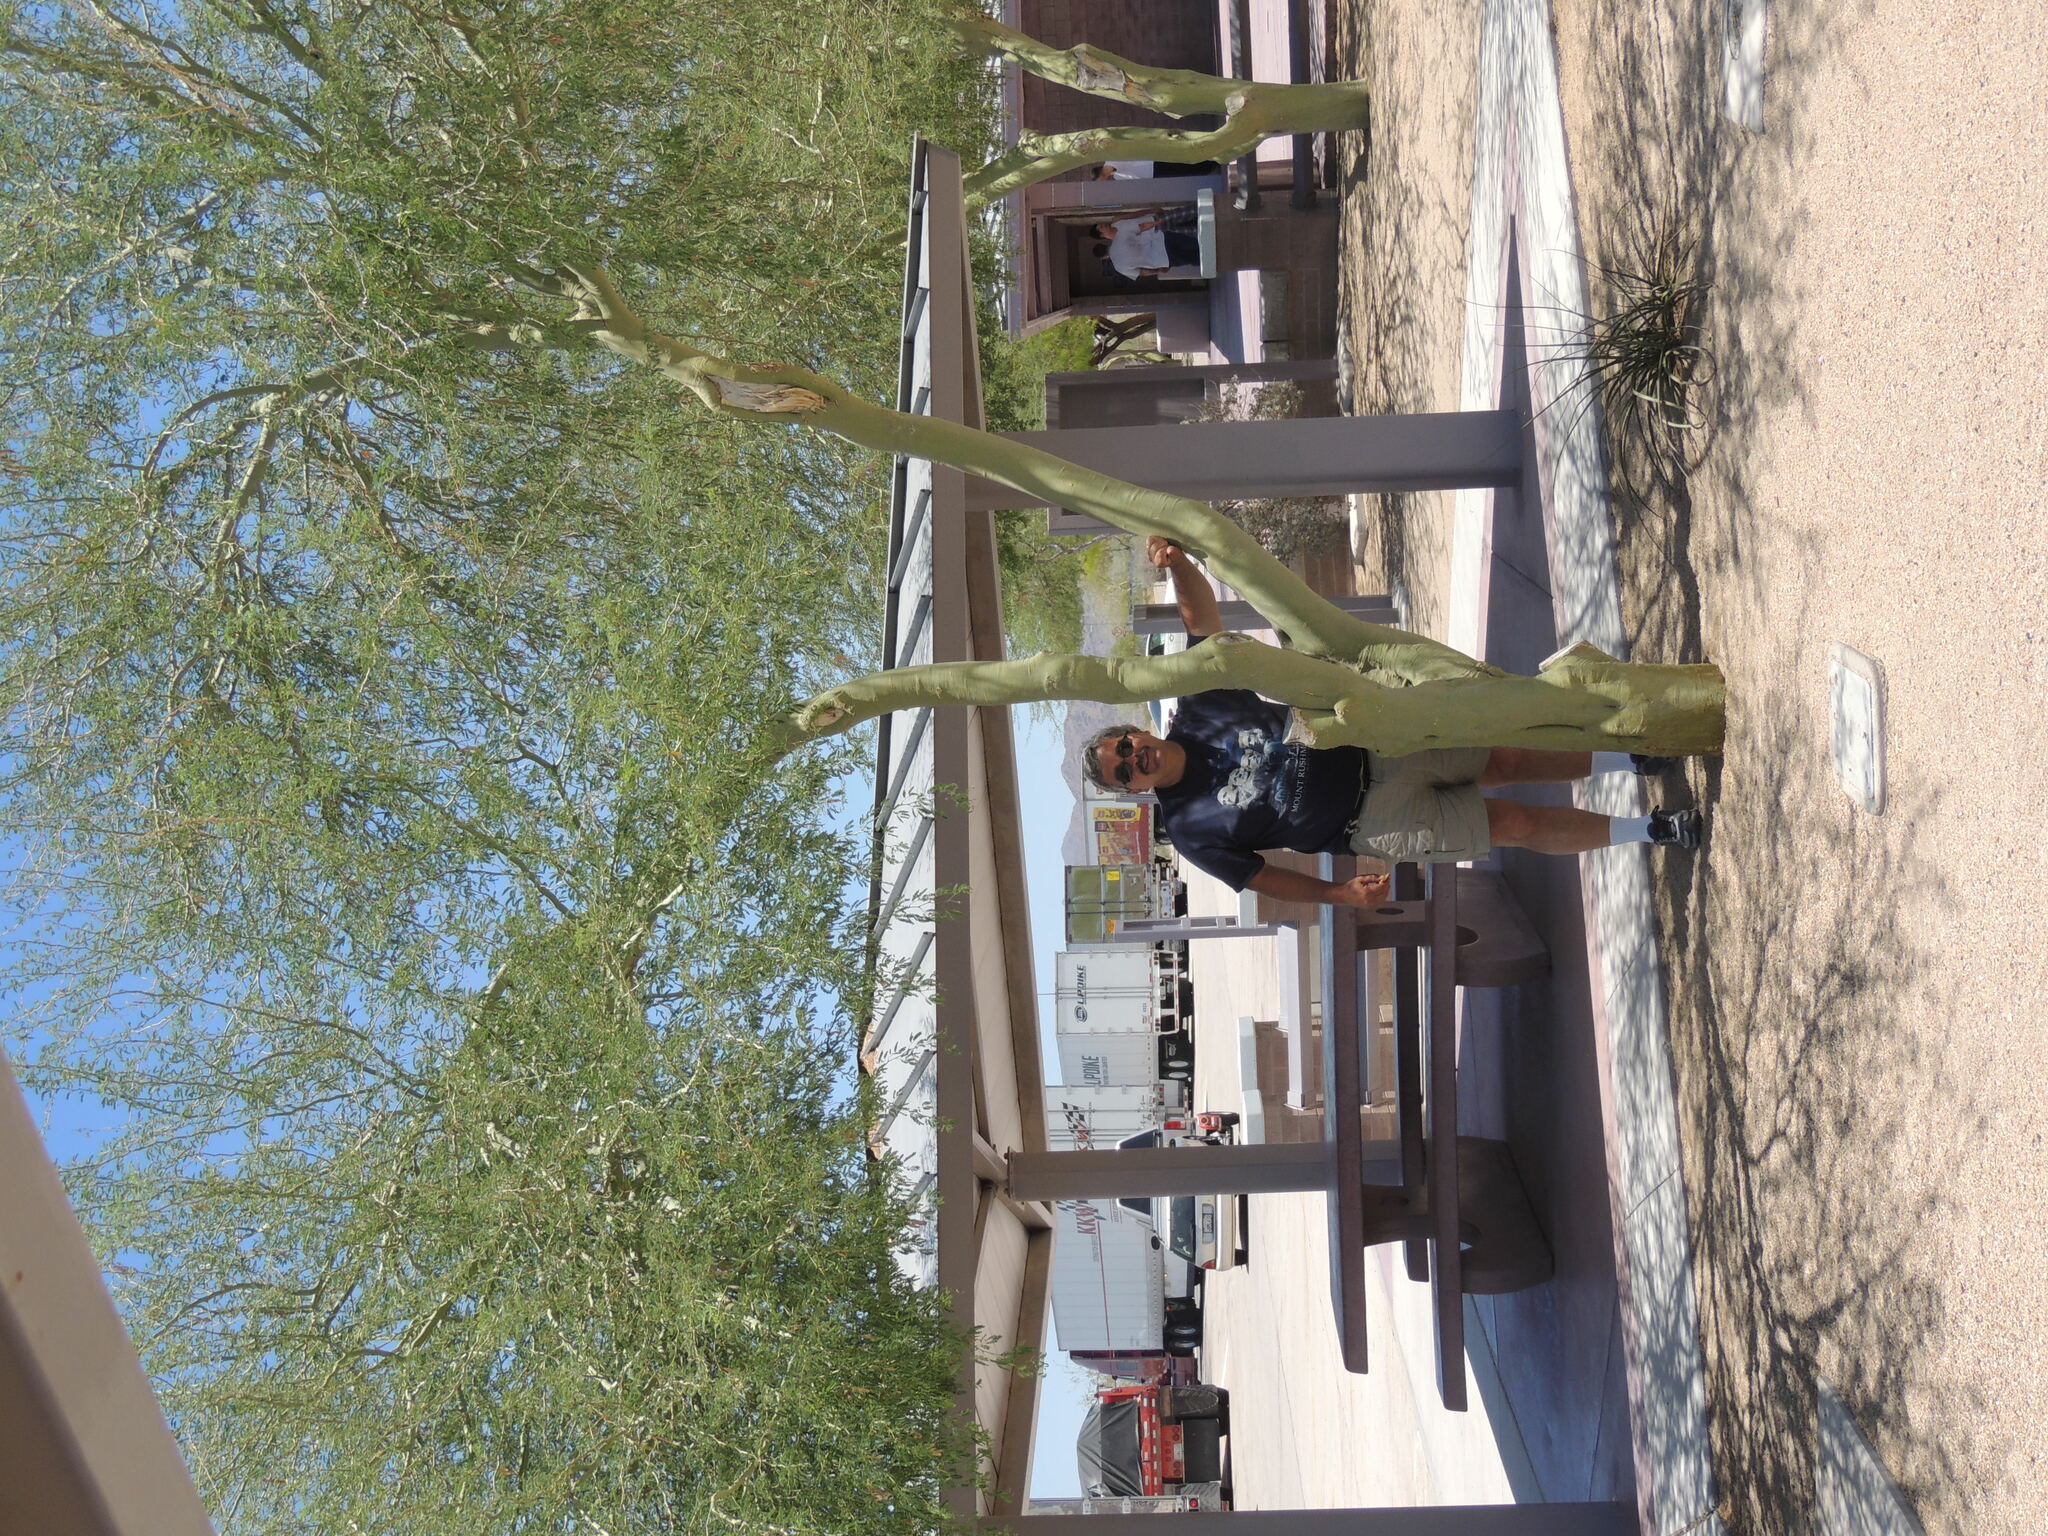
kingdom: Plantae
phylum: Tracheophyta
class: Magnoliopsida
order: Fabales
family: Fabaceae
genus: Parkinsonia
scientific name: Parkinsonia praecox
